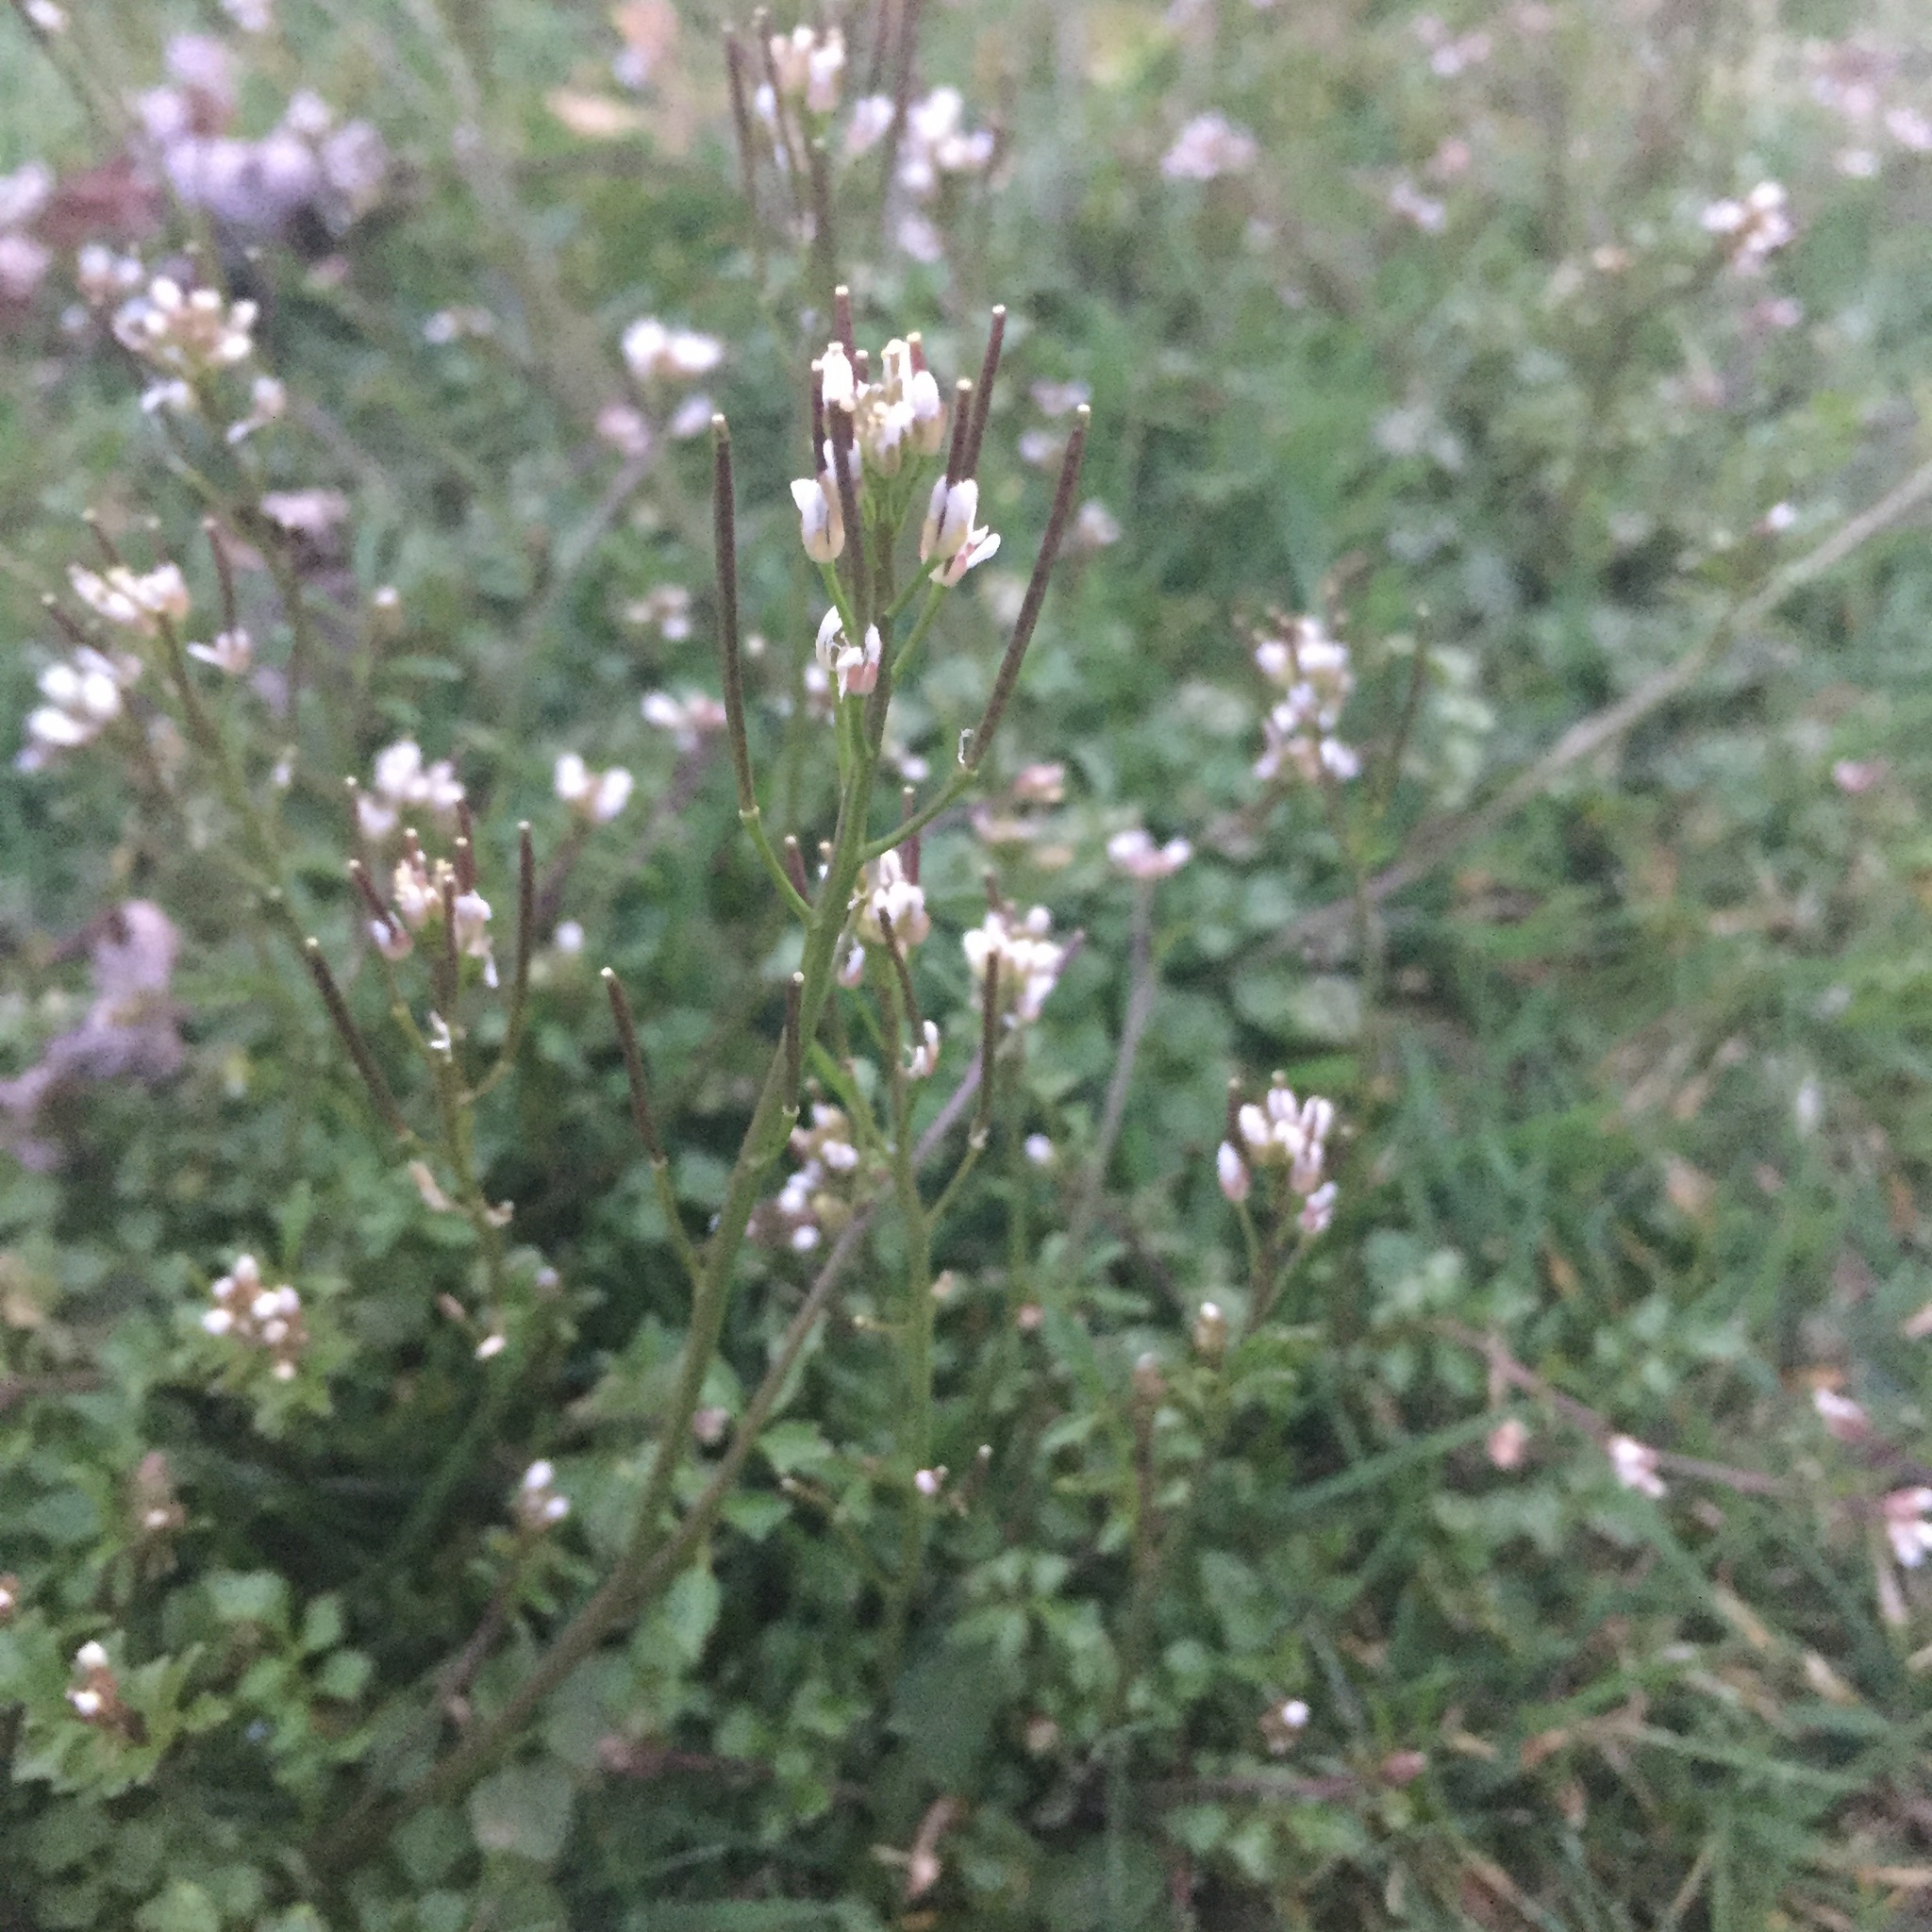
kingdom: Plantae
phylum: Tracheophyta
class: Magnoliopsida
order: Brassicales
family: Brassicaceae
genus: Cardamine
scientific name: Cardamine hirsuta
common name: Hairy bittercress
